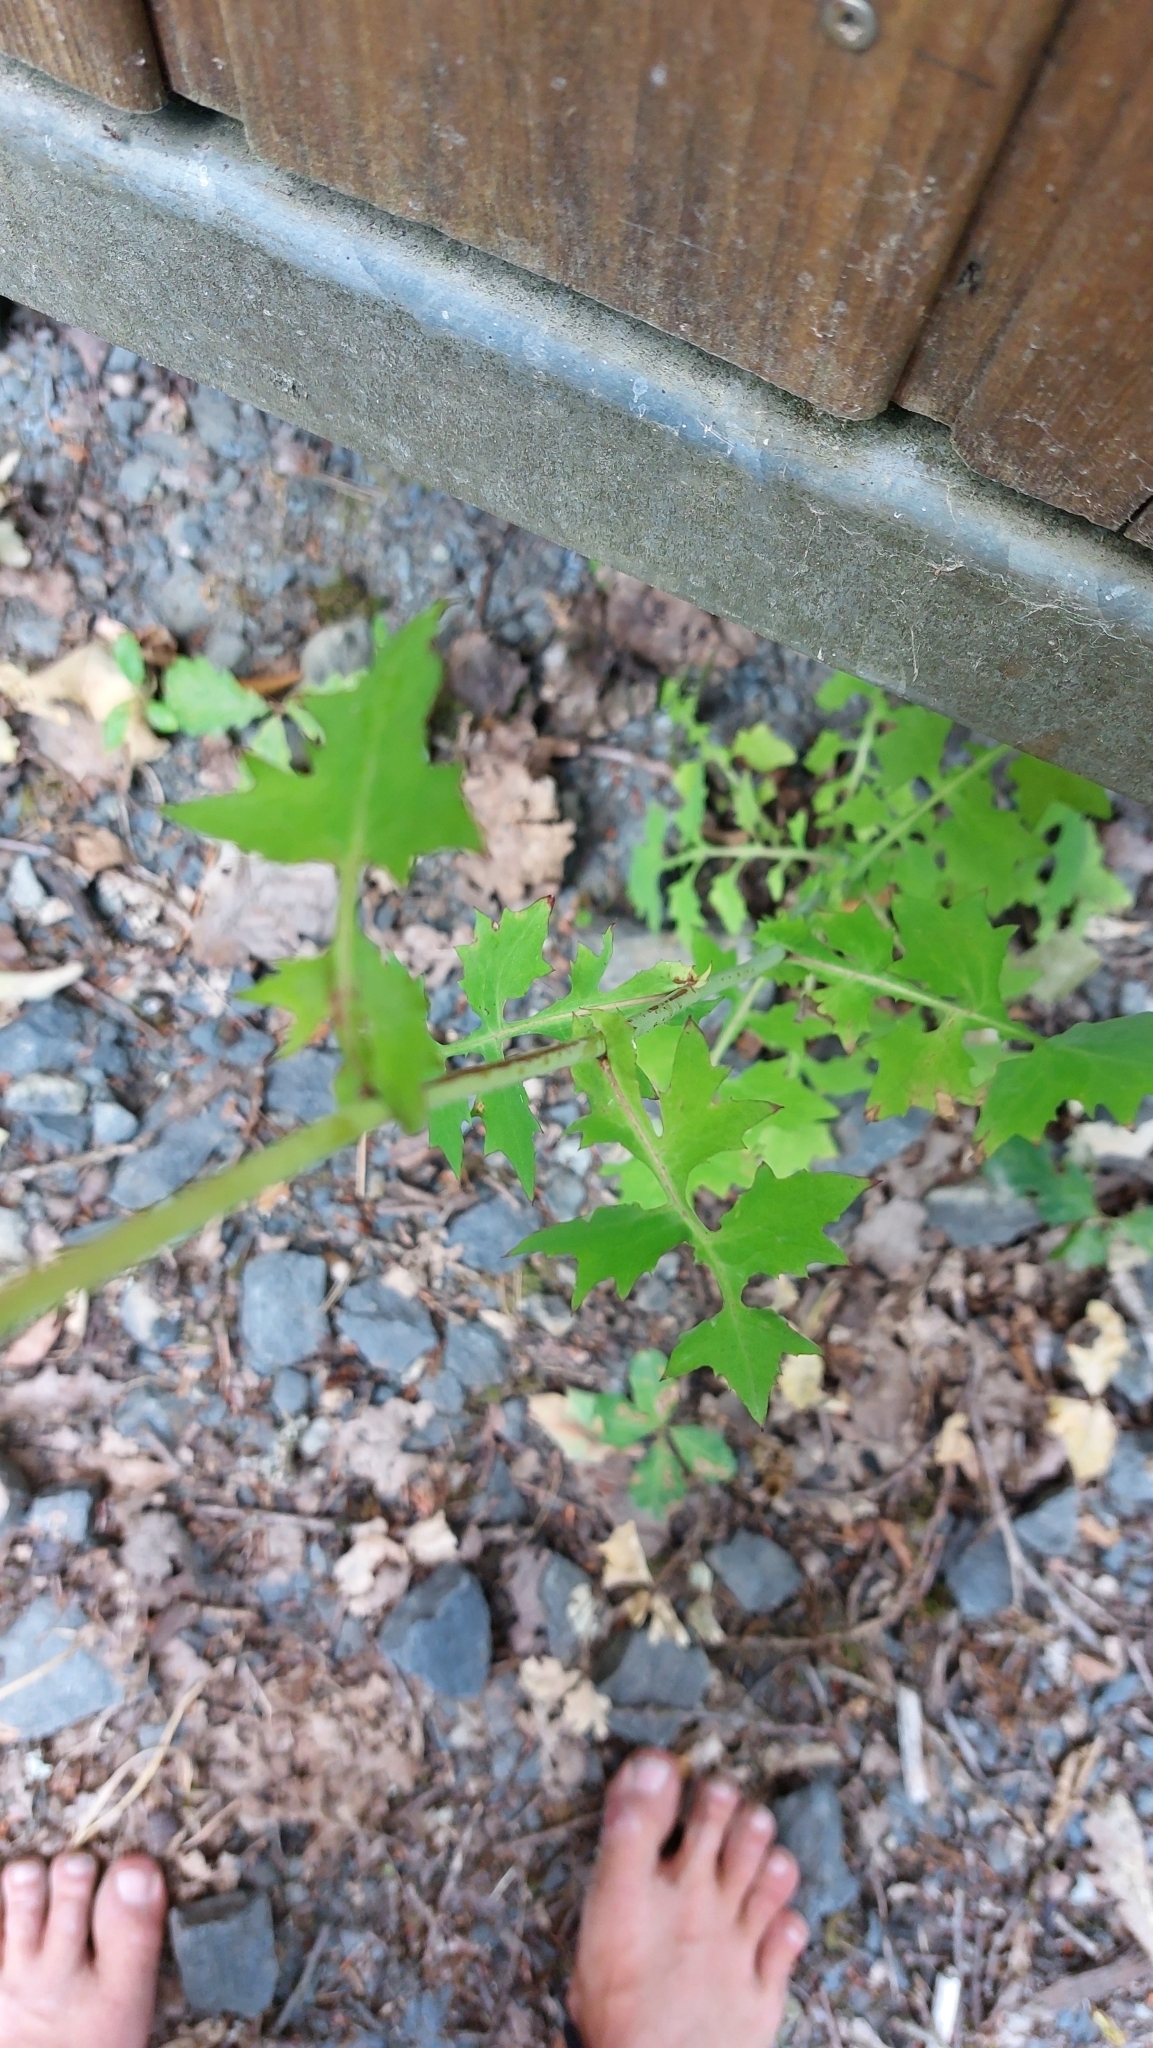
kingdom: Plantae
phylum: Tracheophyta
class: Magnoliopsida
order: Asterales
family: Asteraceae
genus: Mycelis
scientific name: Mycelis muralis
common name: Wall lettuce
